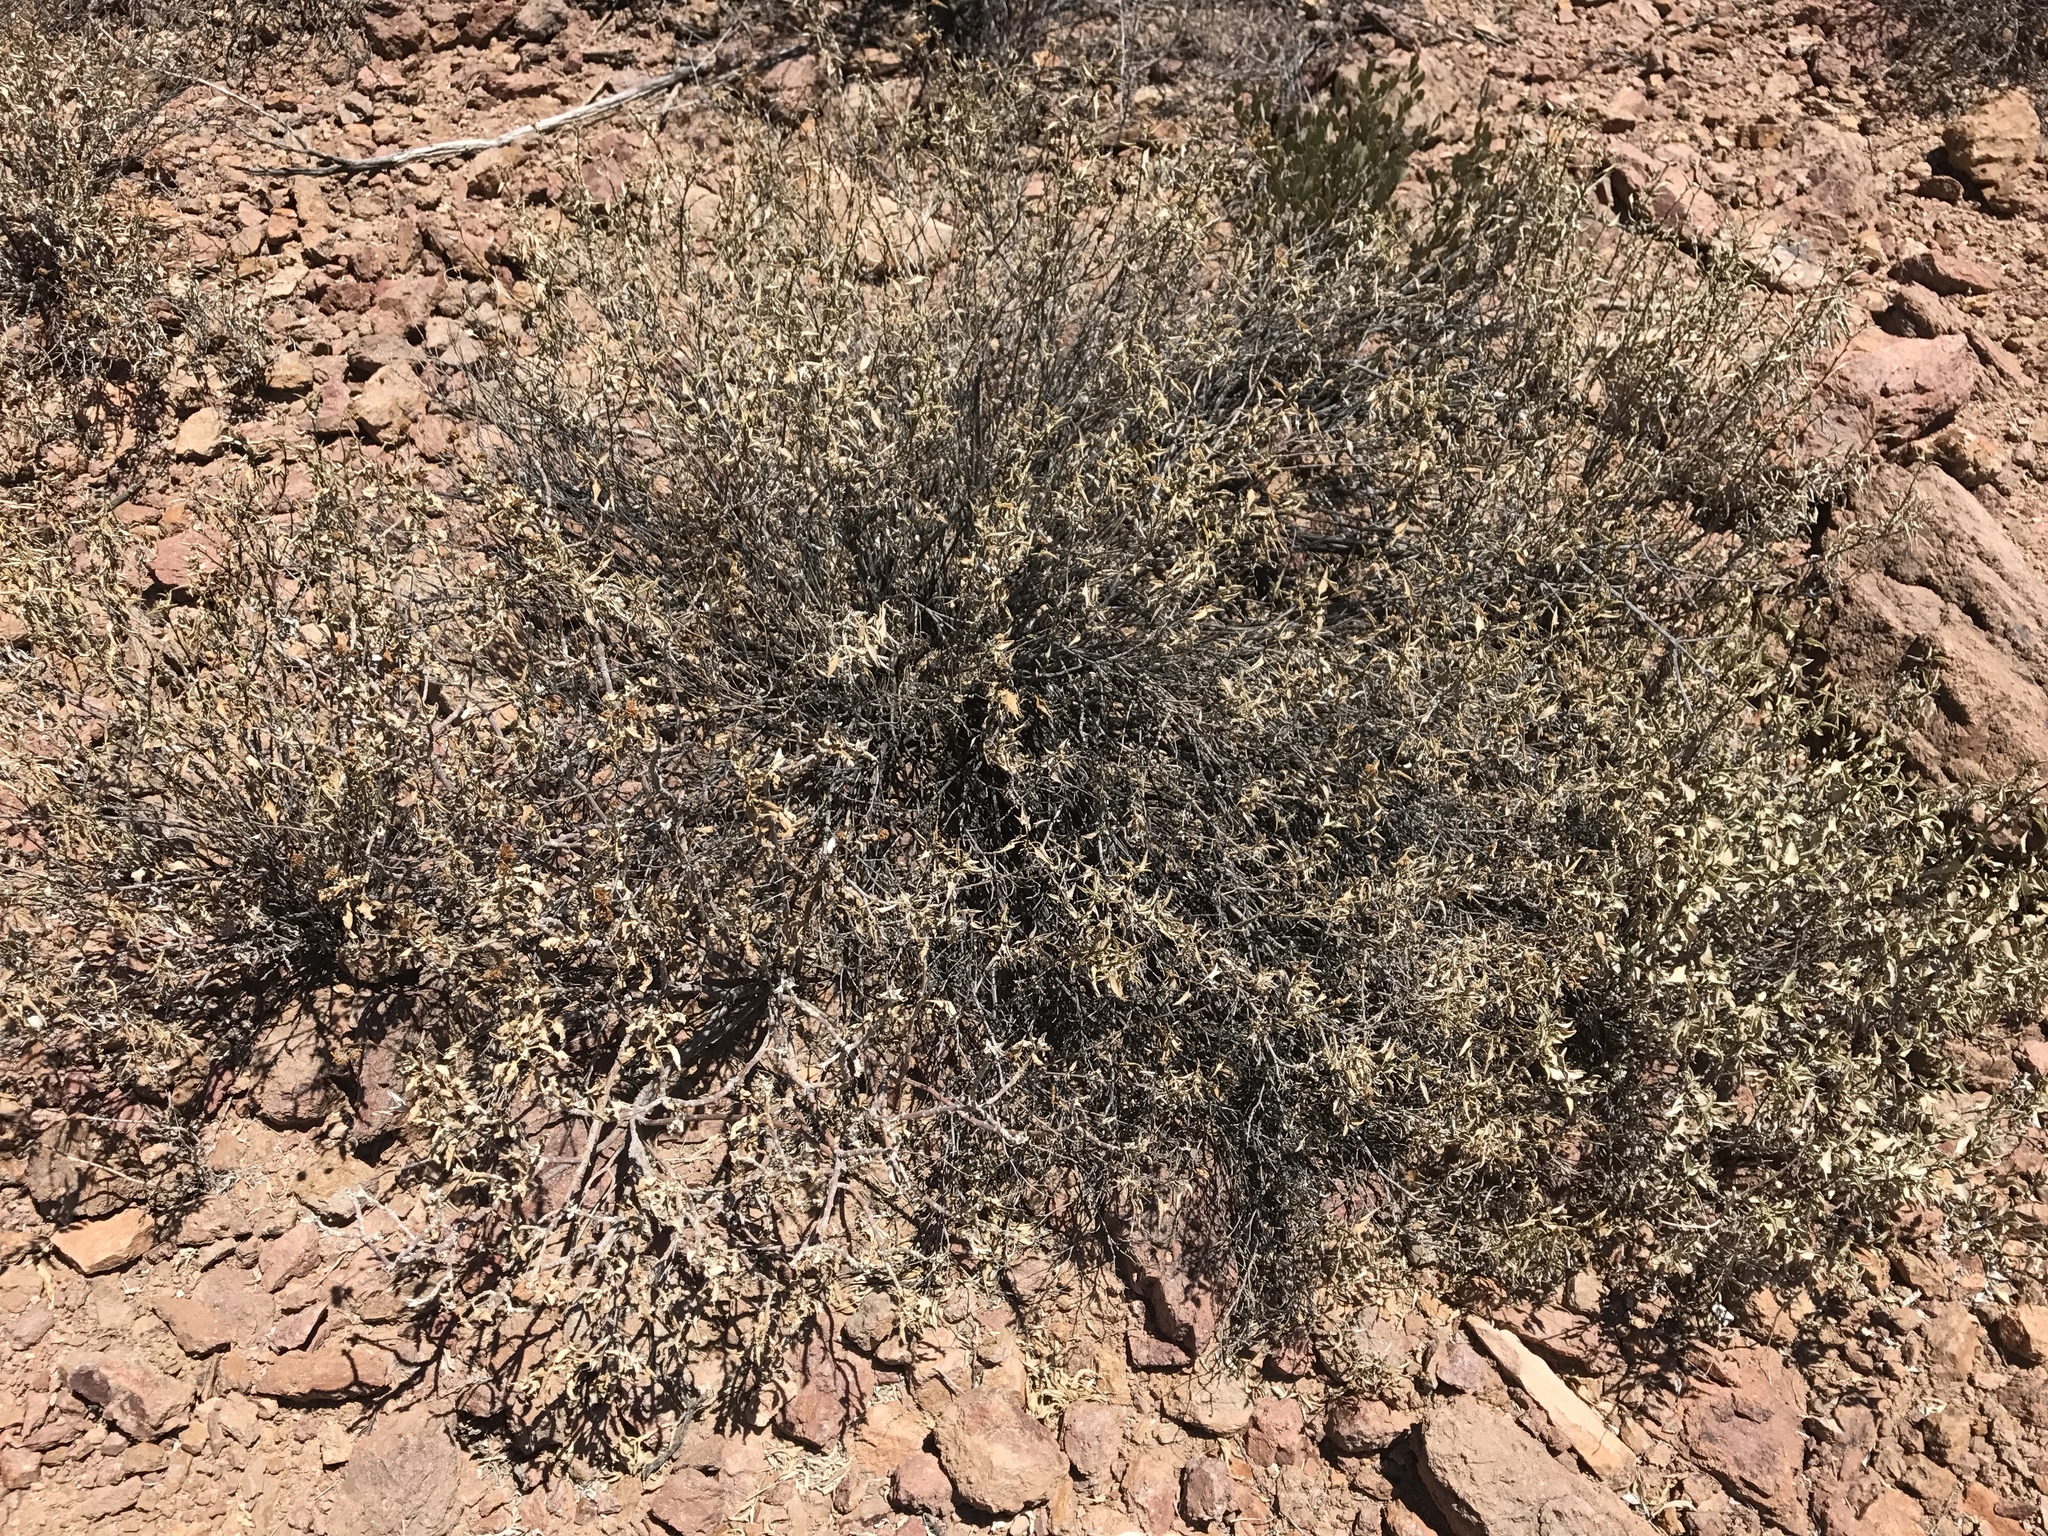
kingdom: Plantae
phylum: Tracheophyta
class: Magnoliopsida
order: Asterales
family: Asteraceae
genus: Ambrosia
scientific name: Ambrosia deltoidea
